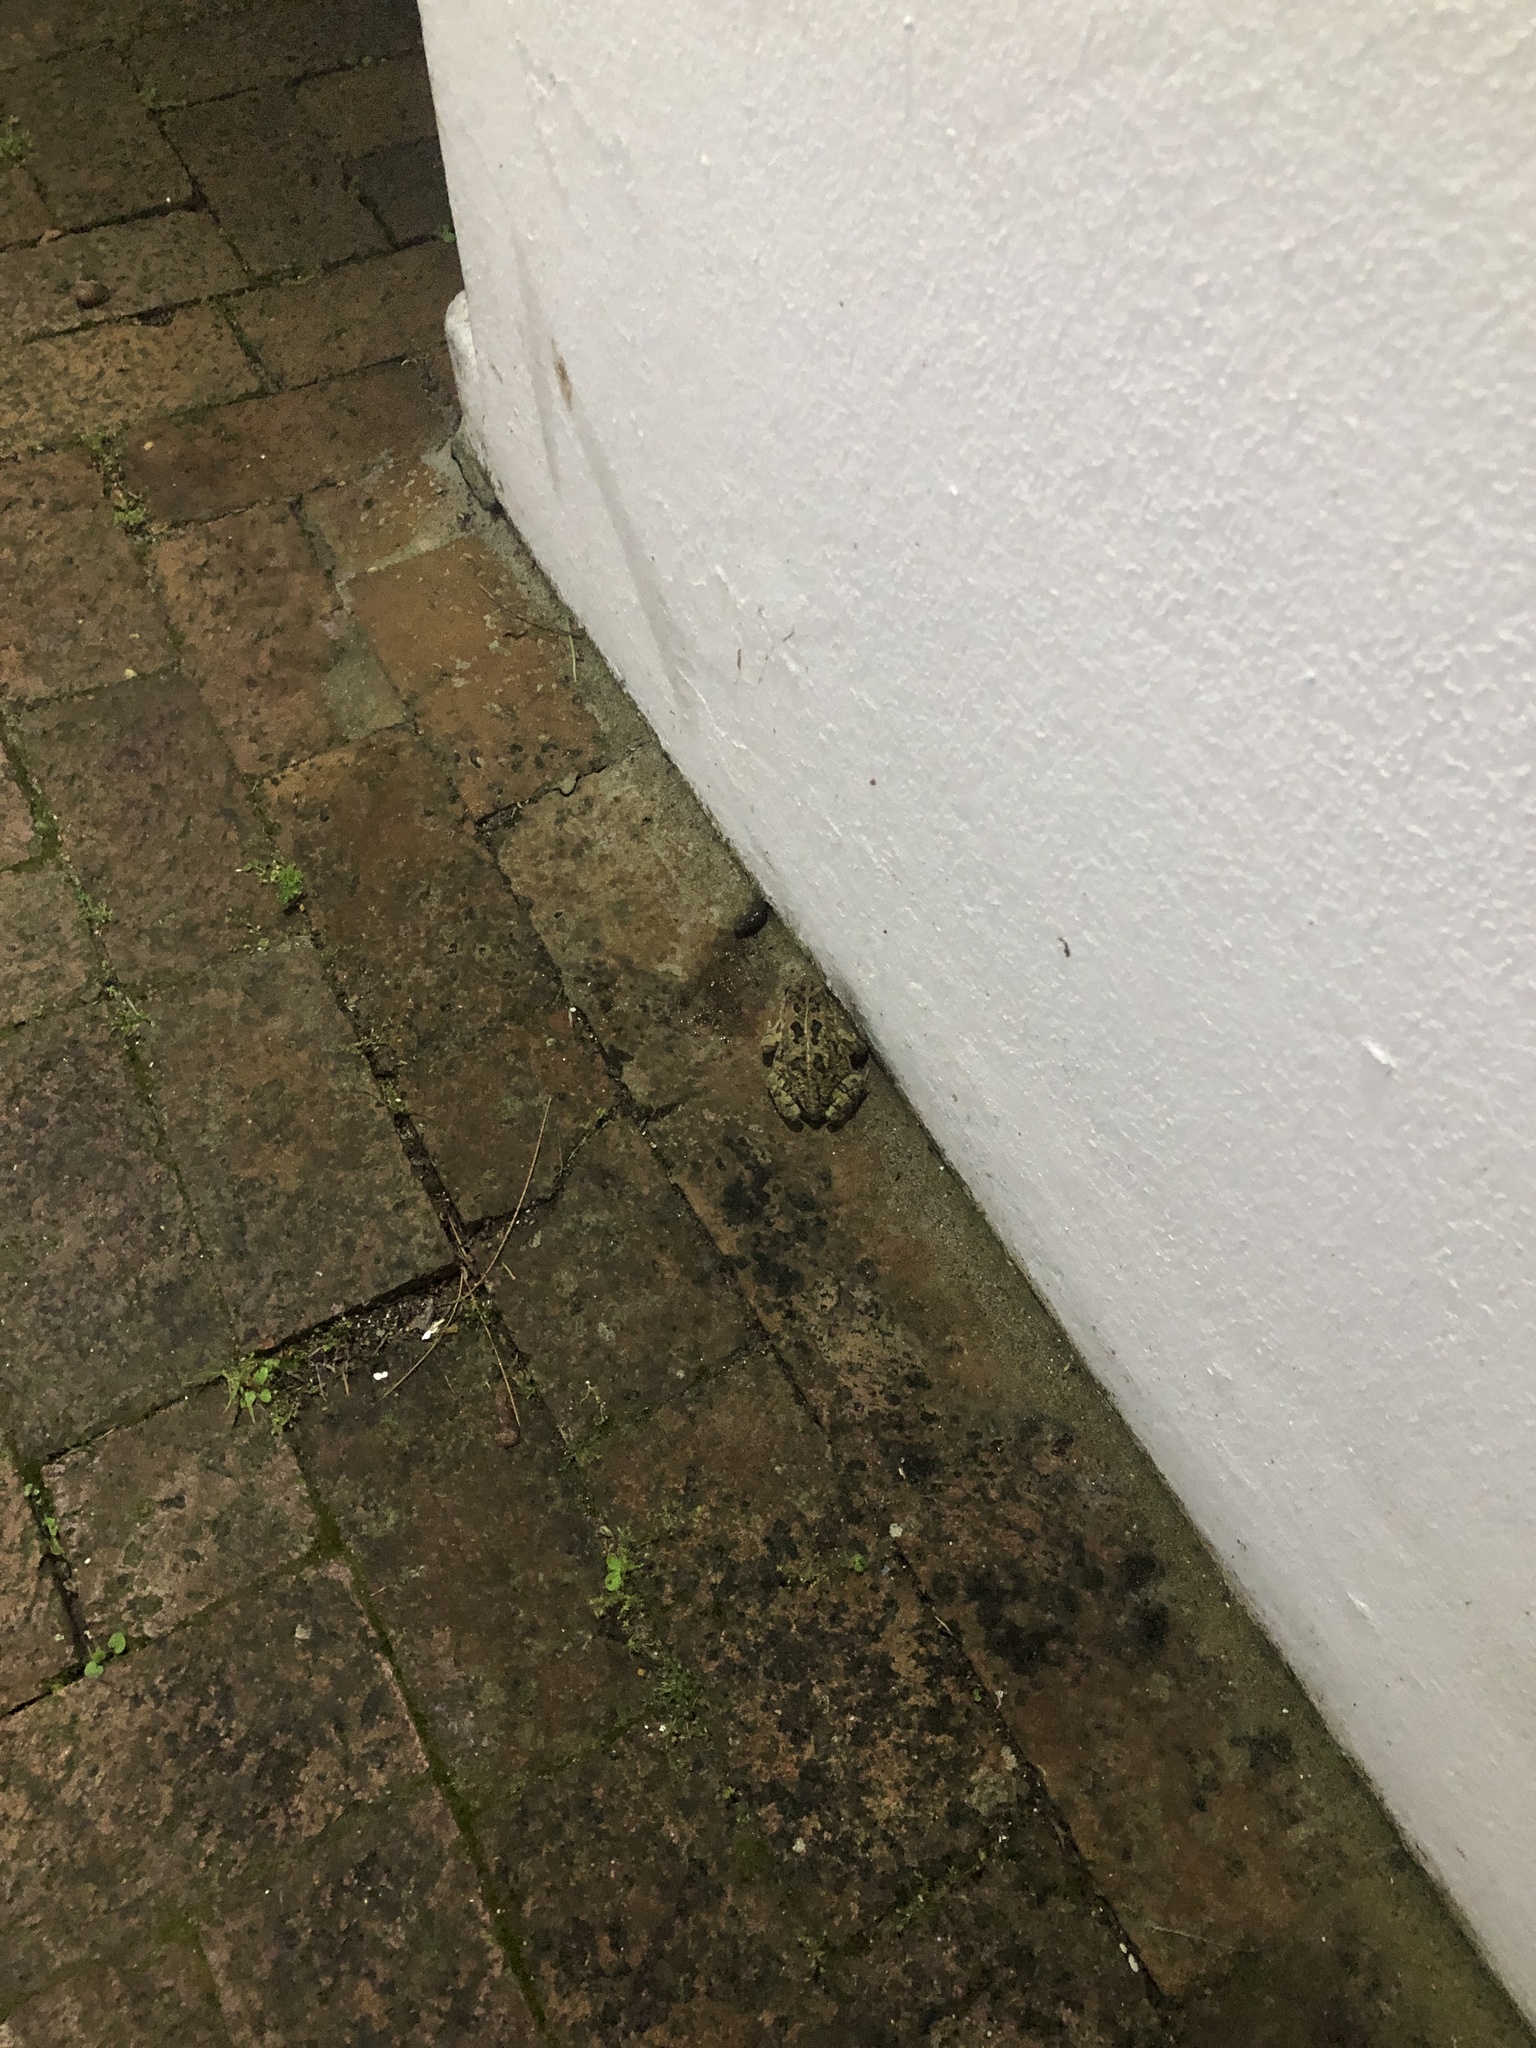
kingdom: Animalia
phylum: Chordata
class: Amphibia
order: Anura
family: Bufonidae
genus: Sclerophrys
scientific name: Sclerophrys gutturalis
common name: African common toad
